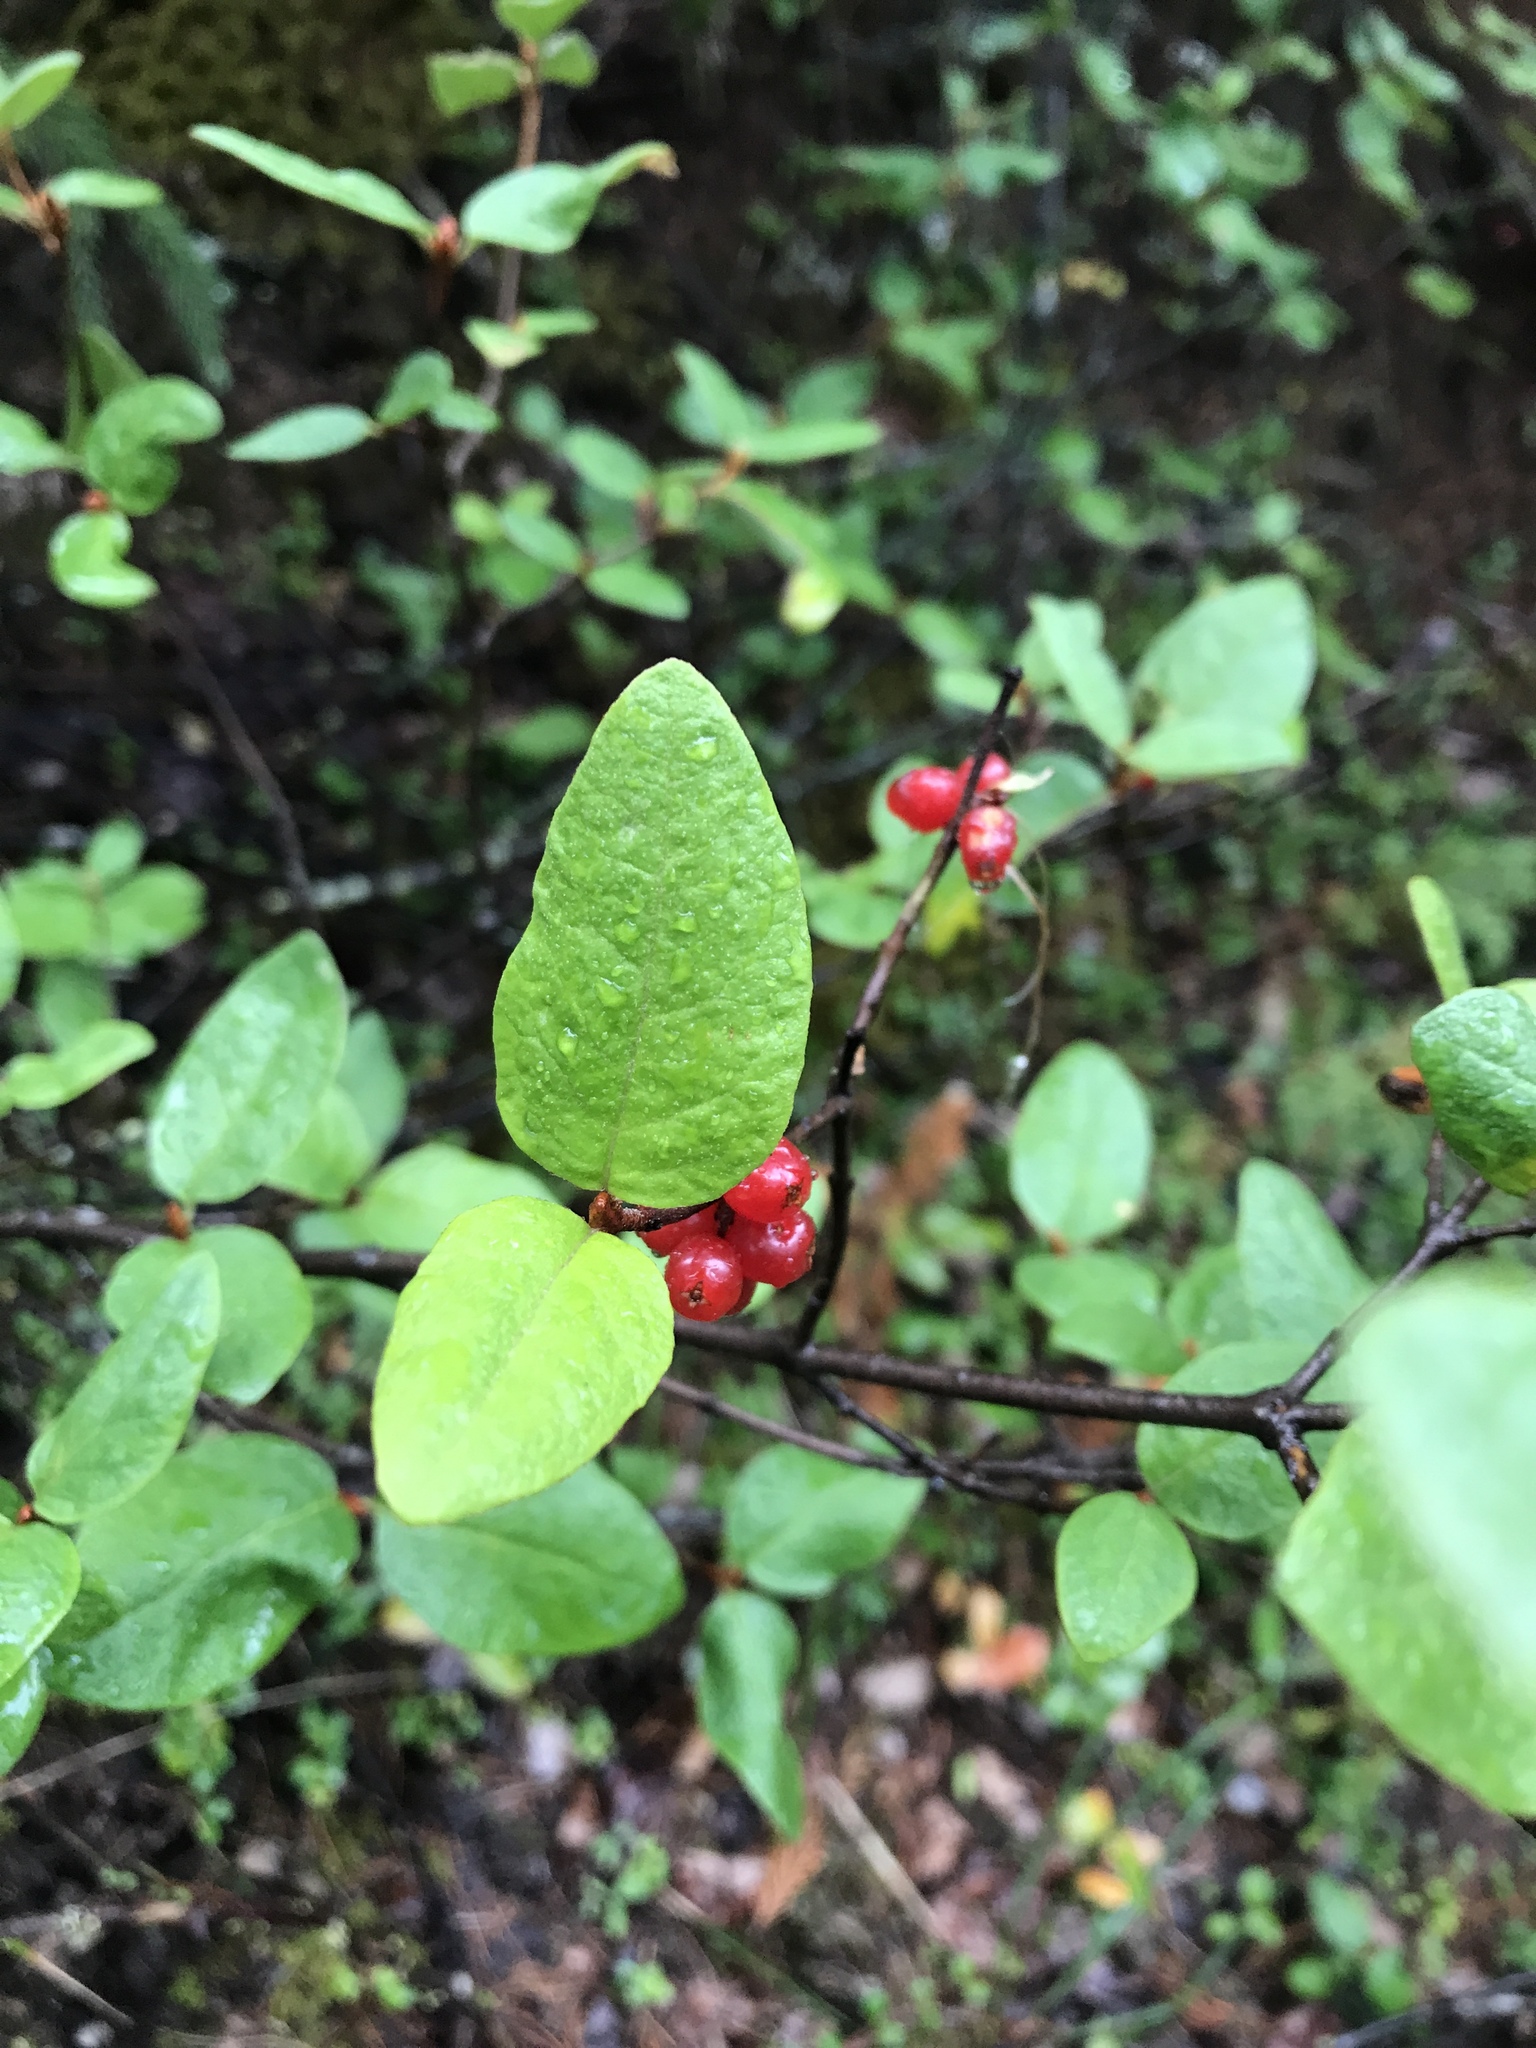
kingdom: Plantae
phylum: Tracheophyta
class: Magnoliopsida
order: Rosales
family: Elaeagnaceae
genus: Shepherdia
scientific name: Shepherdia canadensis
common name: Soapberry
